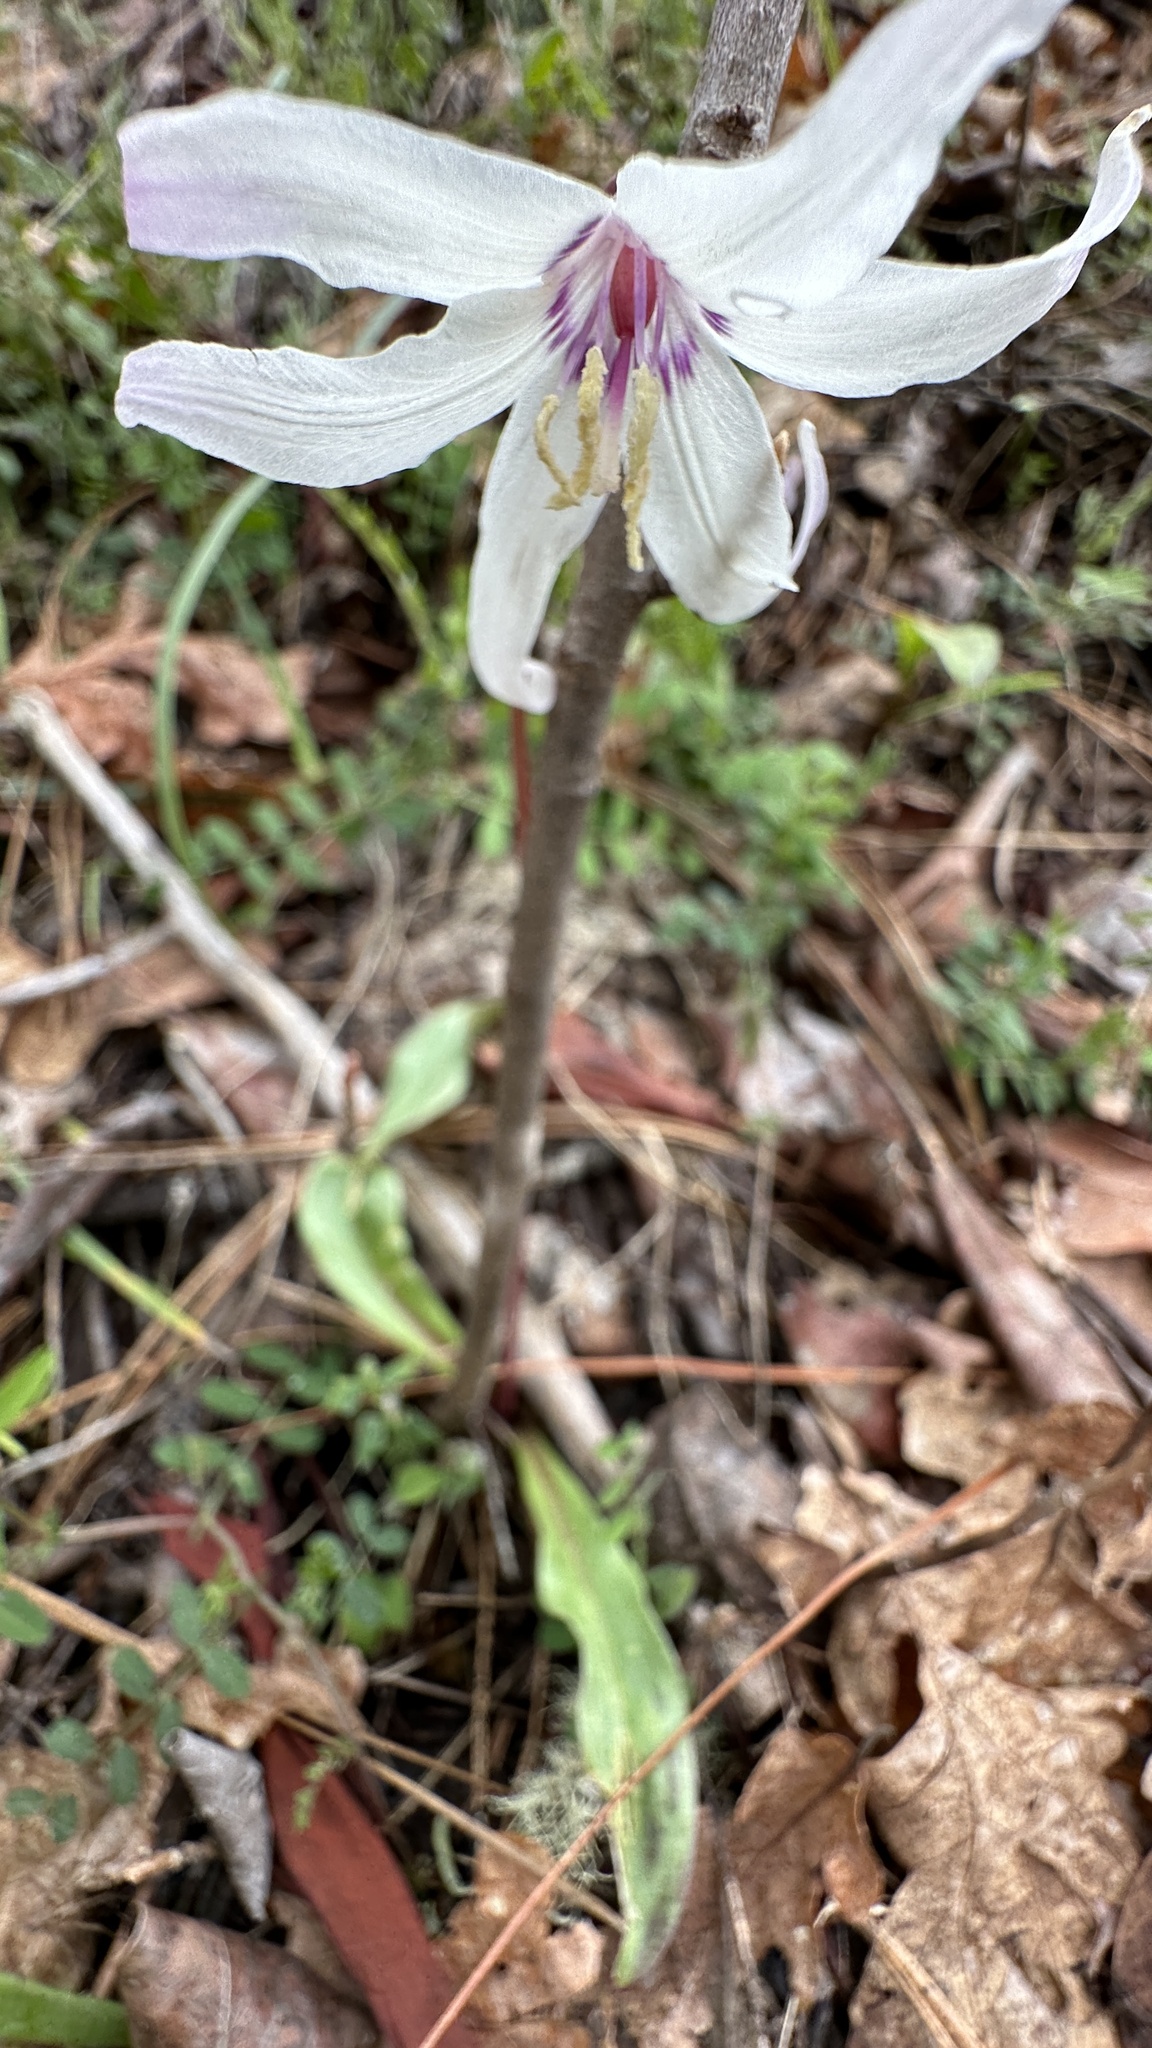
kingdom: Plantae
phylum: Tracheophyta
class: Liliopsida
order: Liliales
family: Liliaceae
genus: Erythronium
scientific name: Erythronium hendersonii
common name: Henderson's fawn-lily
